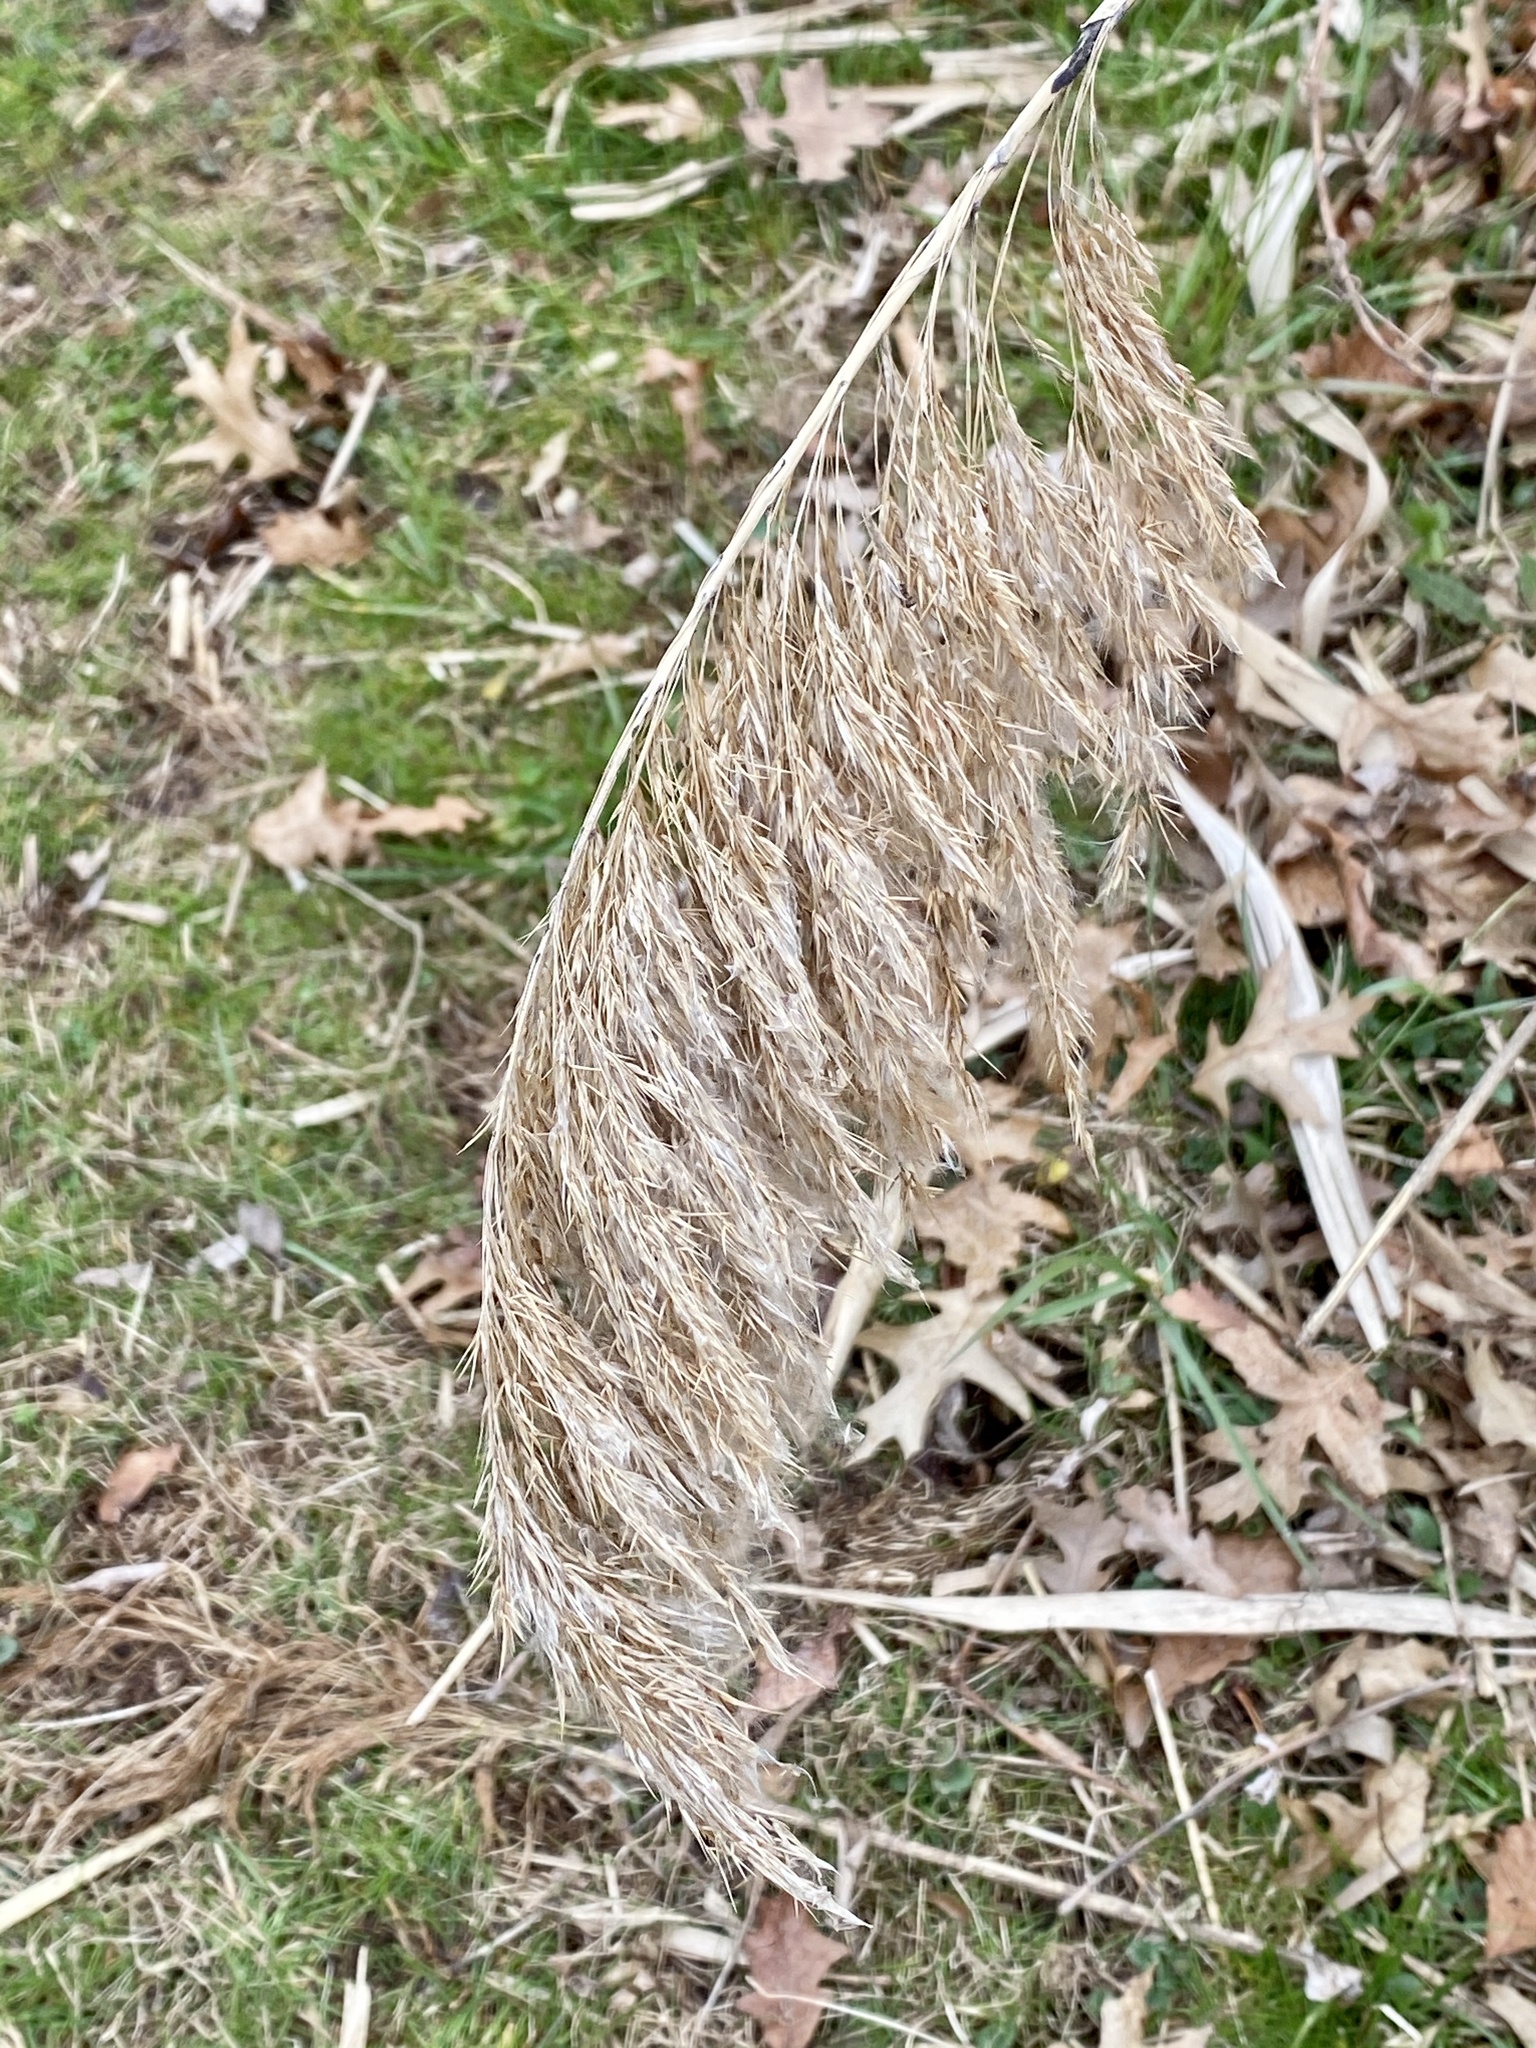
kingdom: Plantae
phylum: Tracheophyta
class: Liliopsida
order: Poales
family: Poaceae
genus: Phragmites
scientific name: Phragmites australis
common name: Common reed
